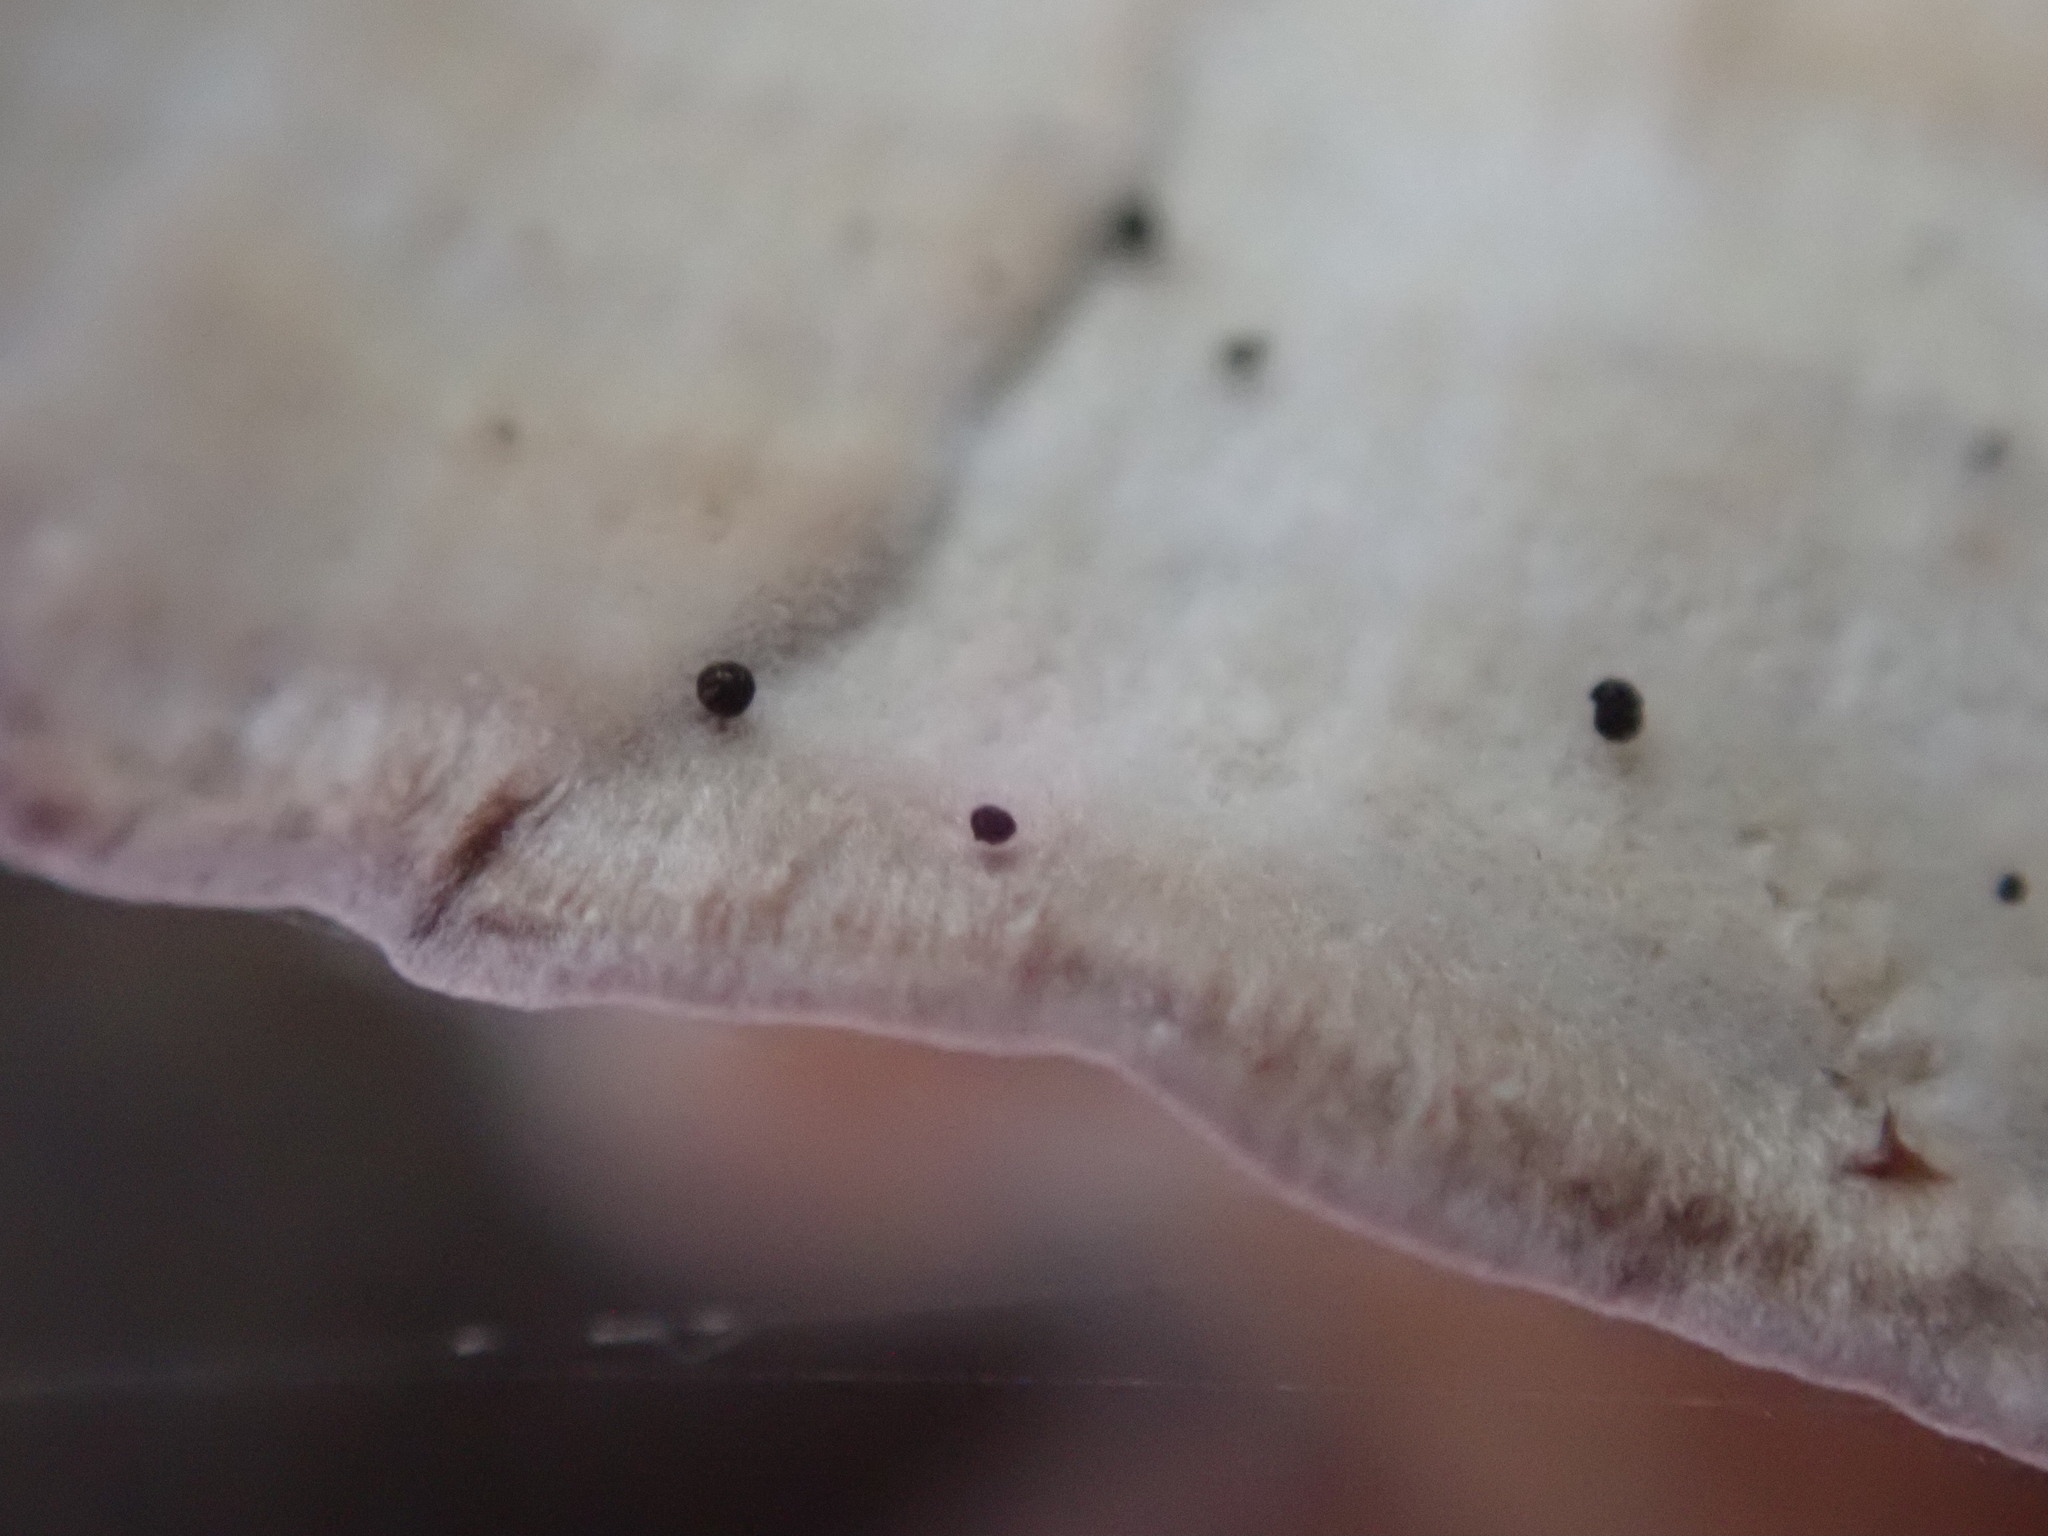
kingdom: Fungi
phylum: Ascomycota
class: Eurotiomycetes
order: Mycocaliciales
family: Mycocaliciaceae
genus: Phaeocalicium
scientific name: Phaeocalicium polyporaeum
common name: Fairy pins
